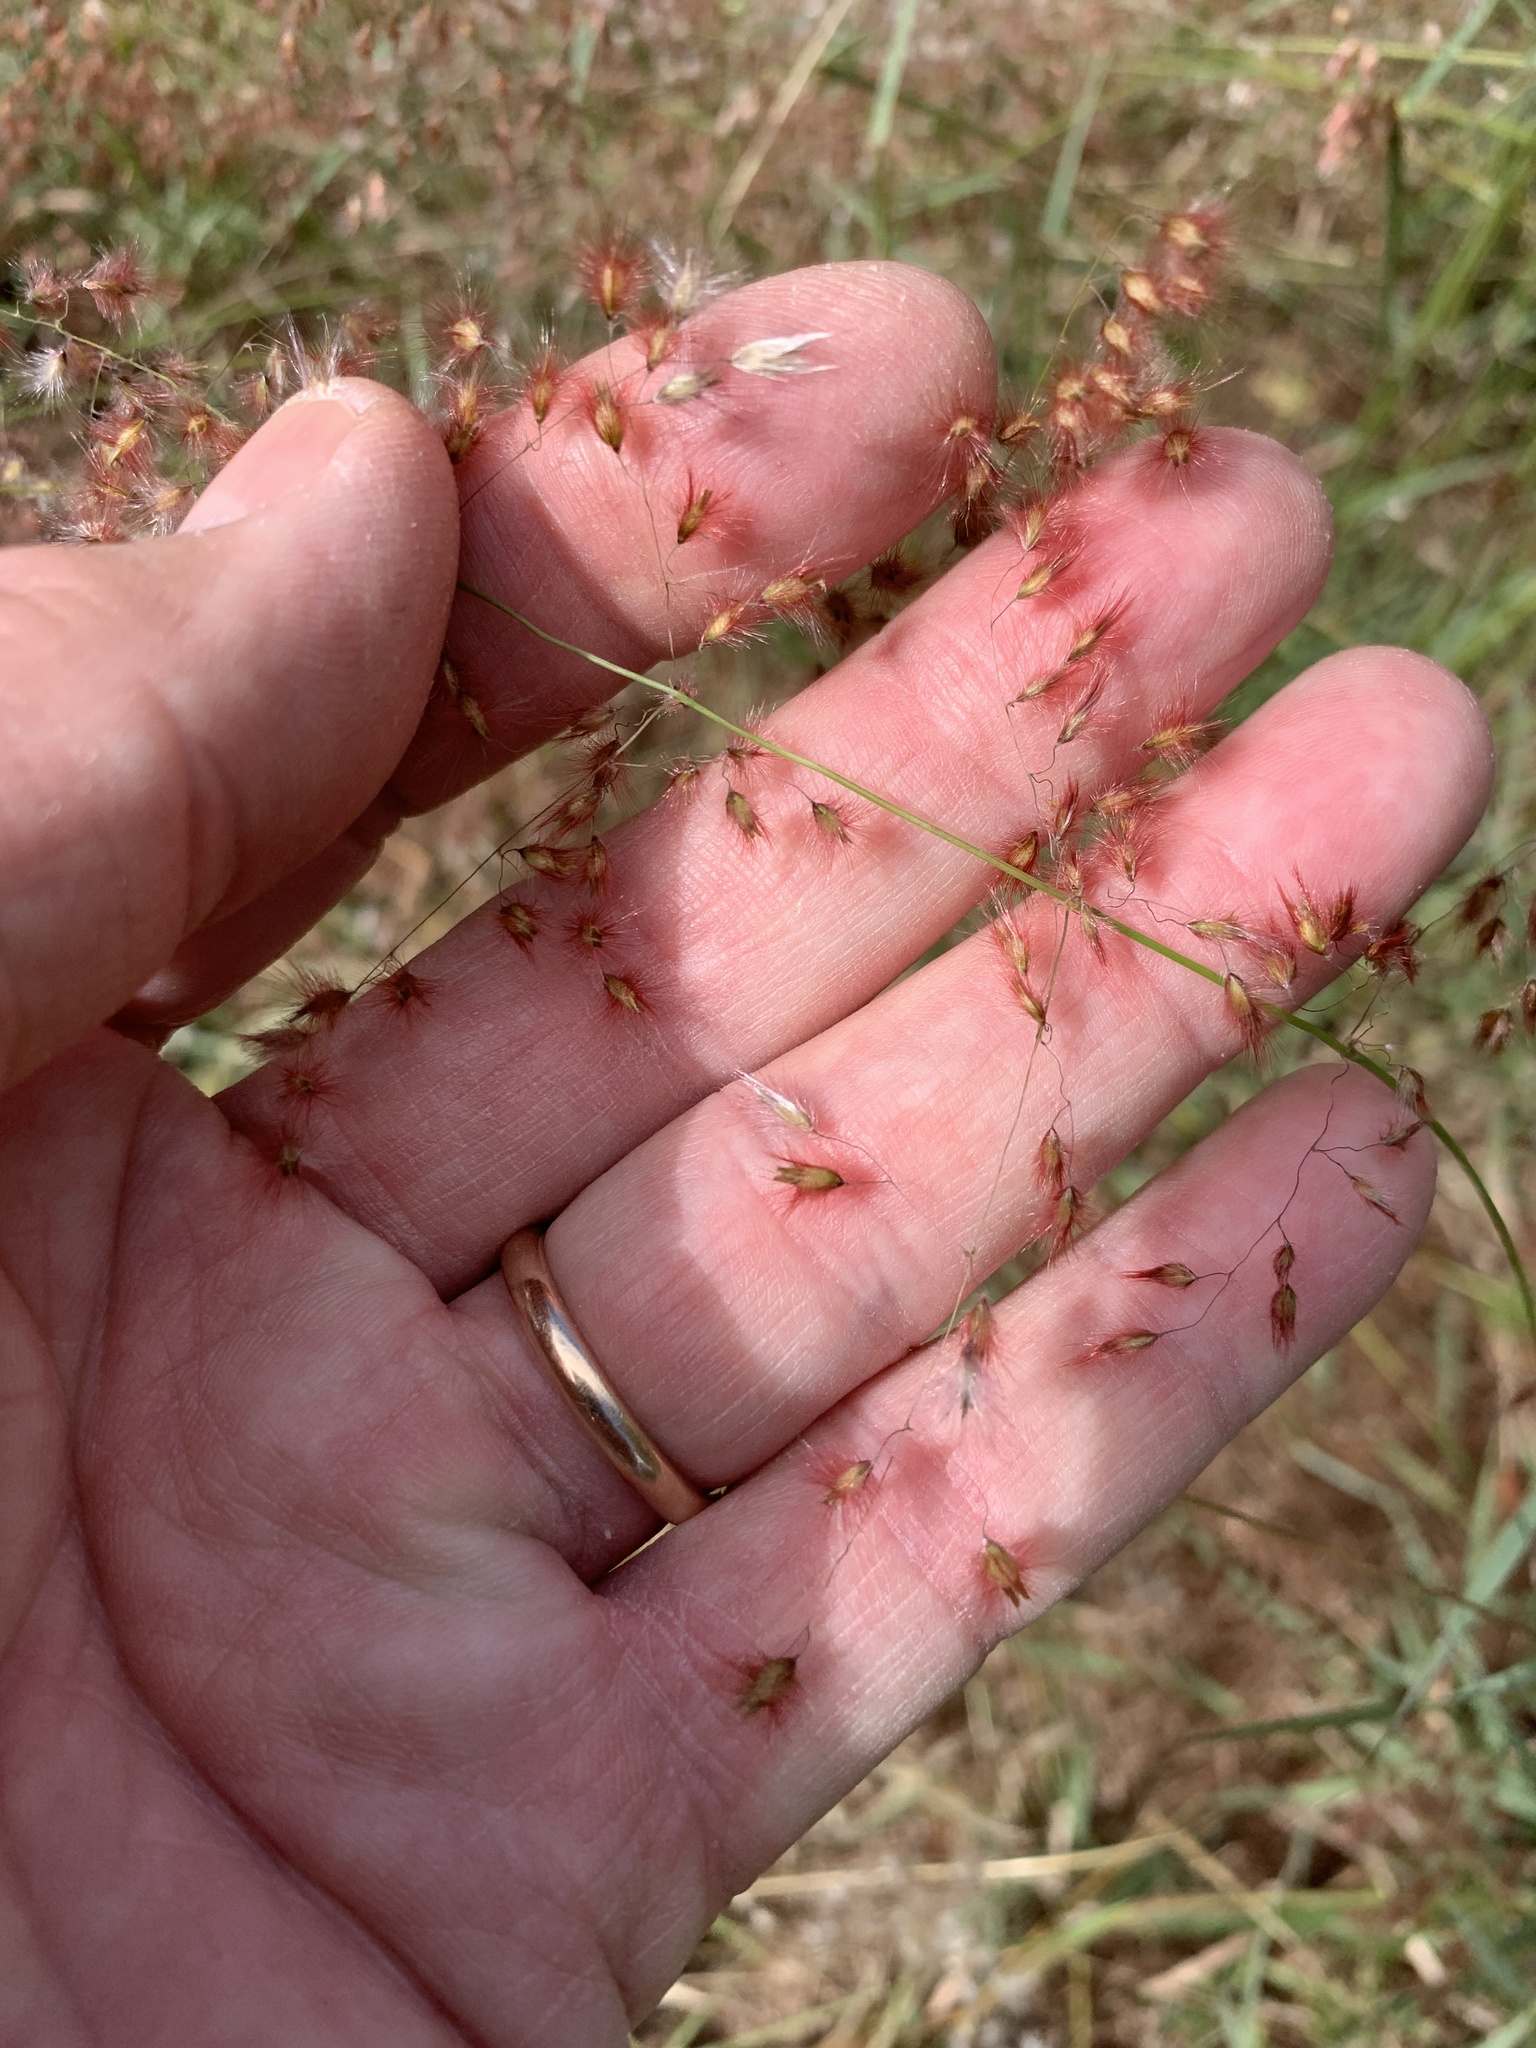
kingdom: Plantae
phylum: Tracheophyta
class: Liliopsida
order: Poales
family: Poaceae
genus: Melinis
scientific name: Melinis repens
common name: Rose natal grass
